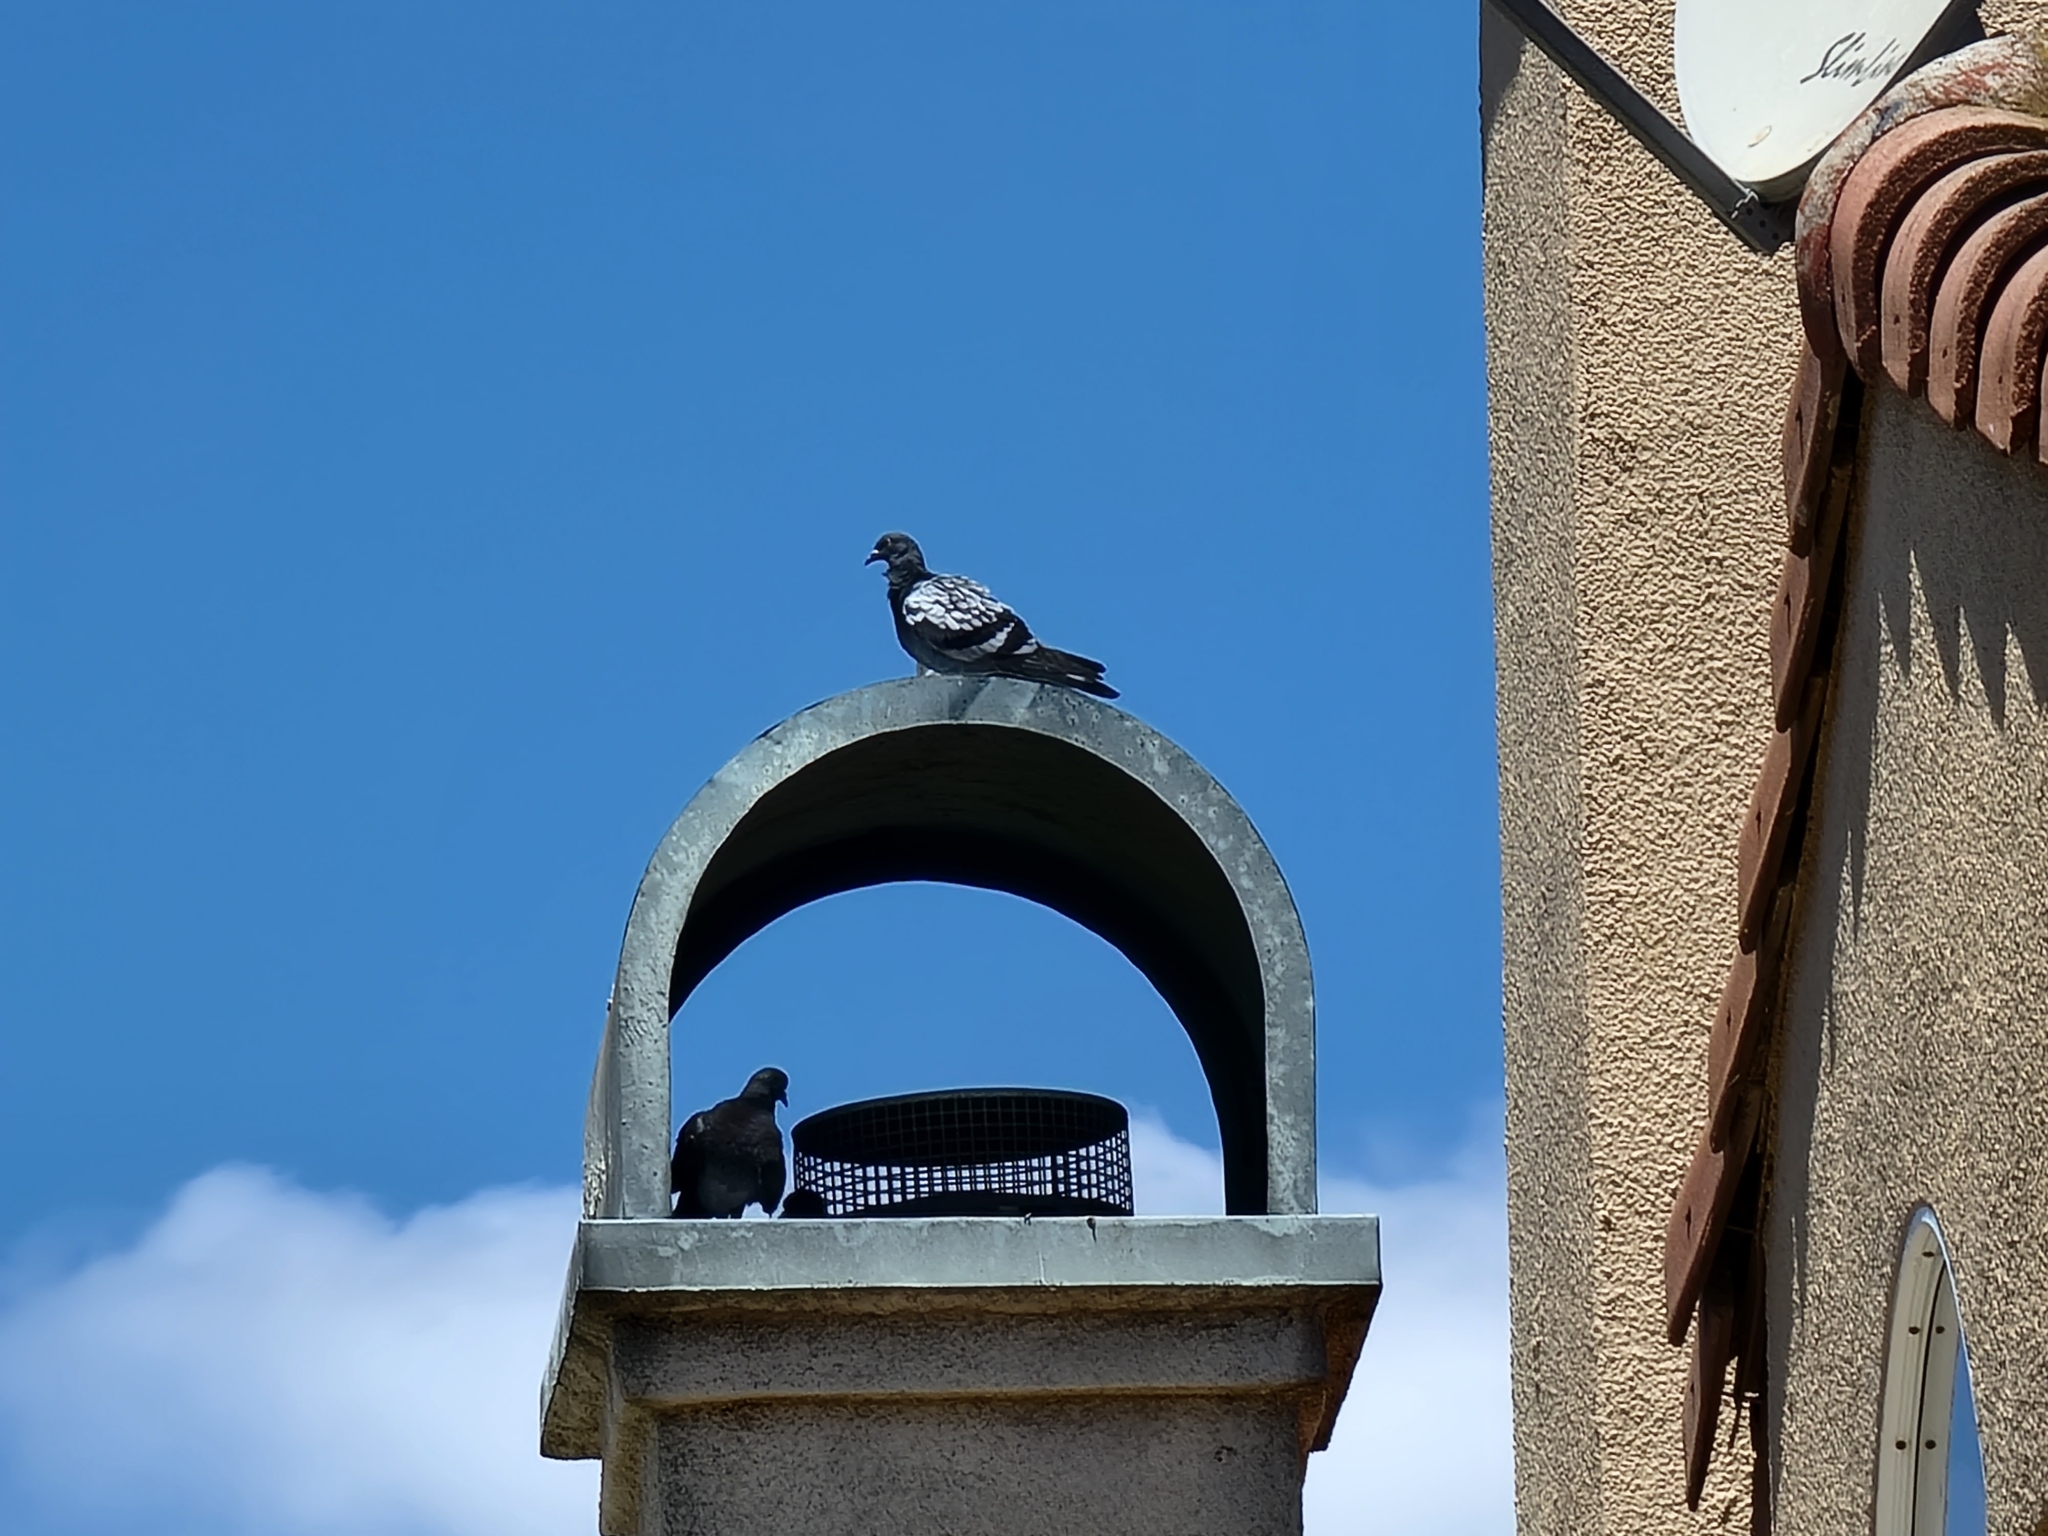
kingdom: Animalia
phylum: Chordata
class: Aves
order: Columbiformes
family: Columbidae
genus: Columba
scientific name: Columba livia
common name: Rock pigeon
